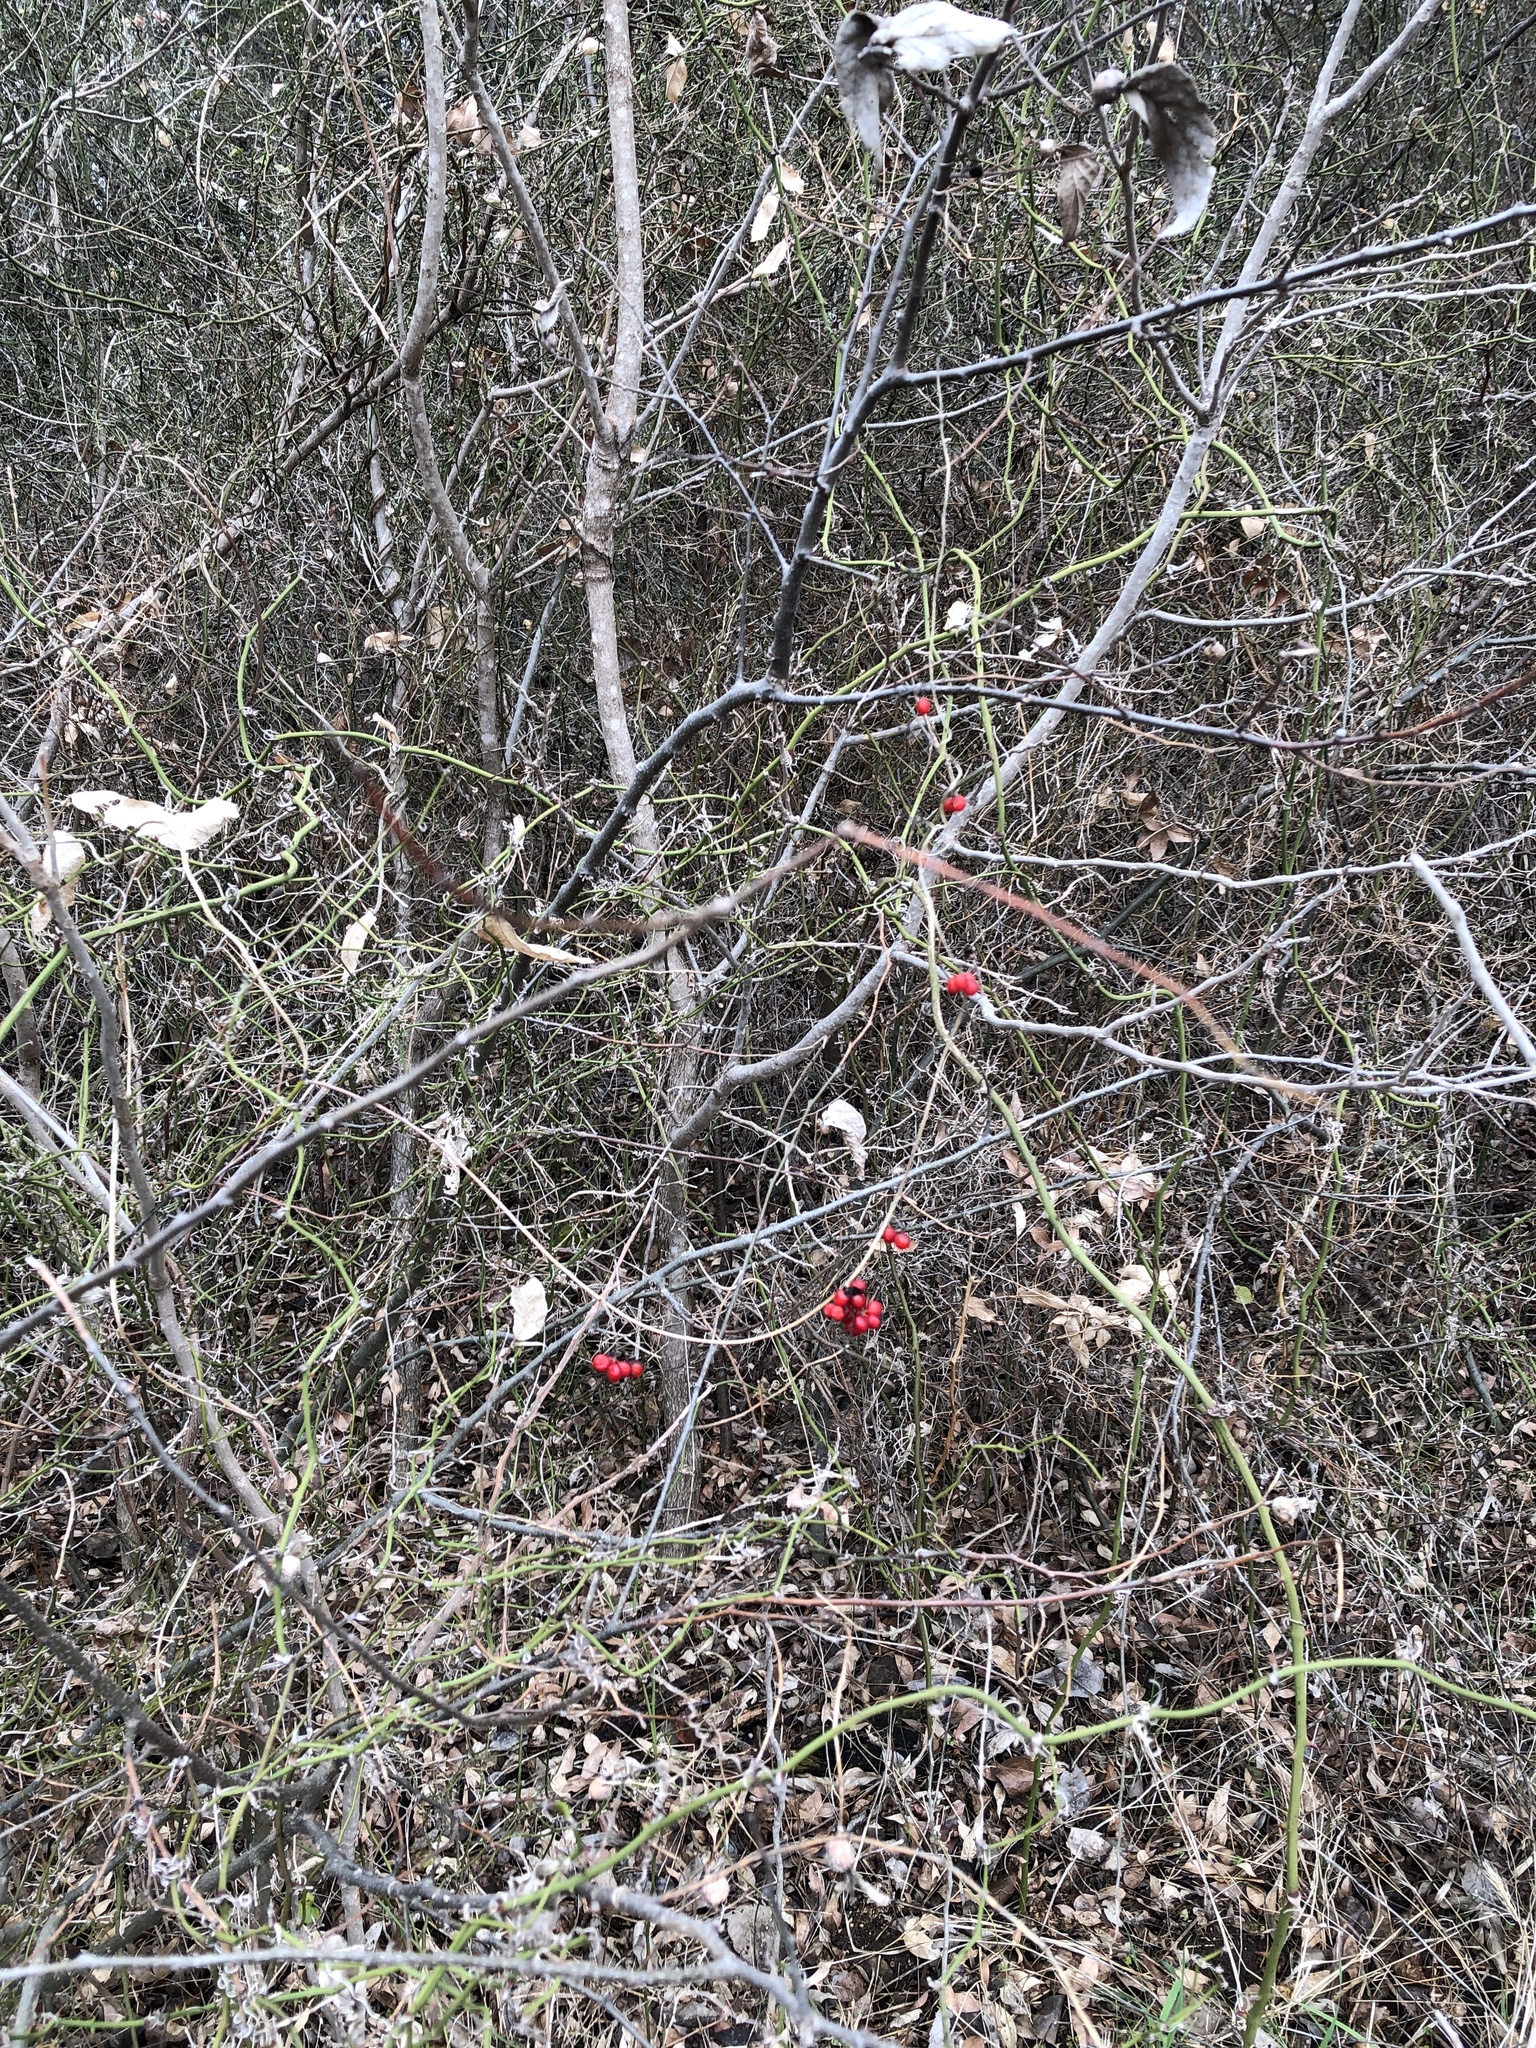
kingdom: Plantae
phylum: Tracheophyta
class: Magnoliopsida
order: Ranunculales
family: Menispermaceae
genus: Cocculus
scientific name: Cocculus carolinus
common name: Carolina moonseed
